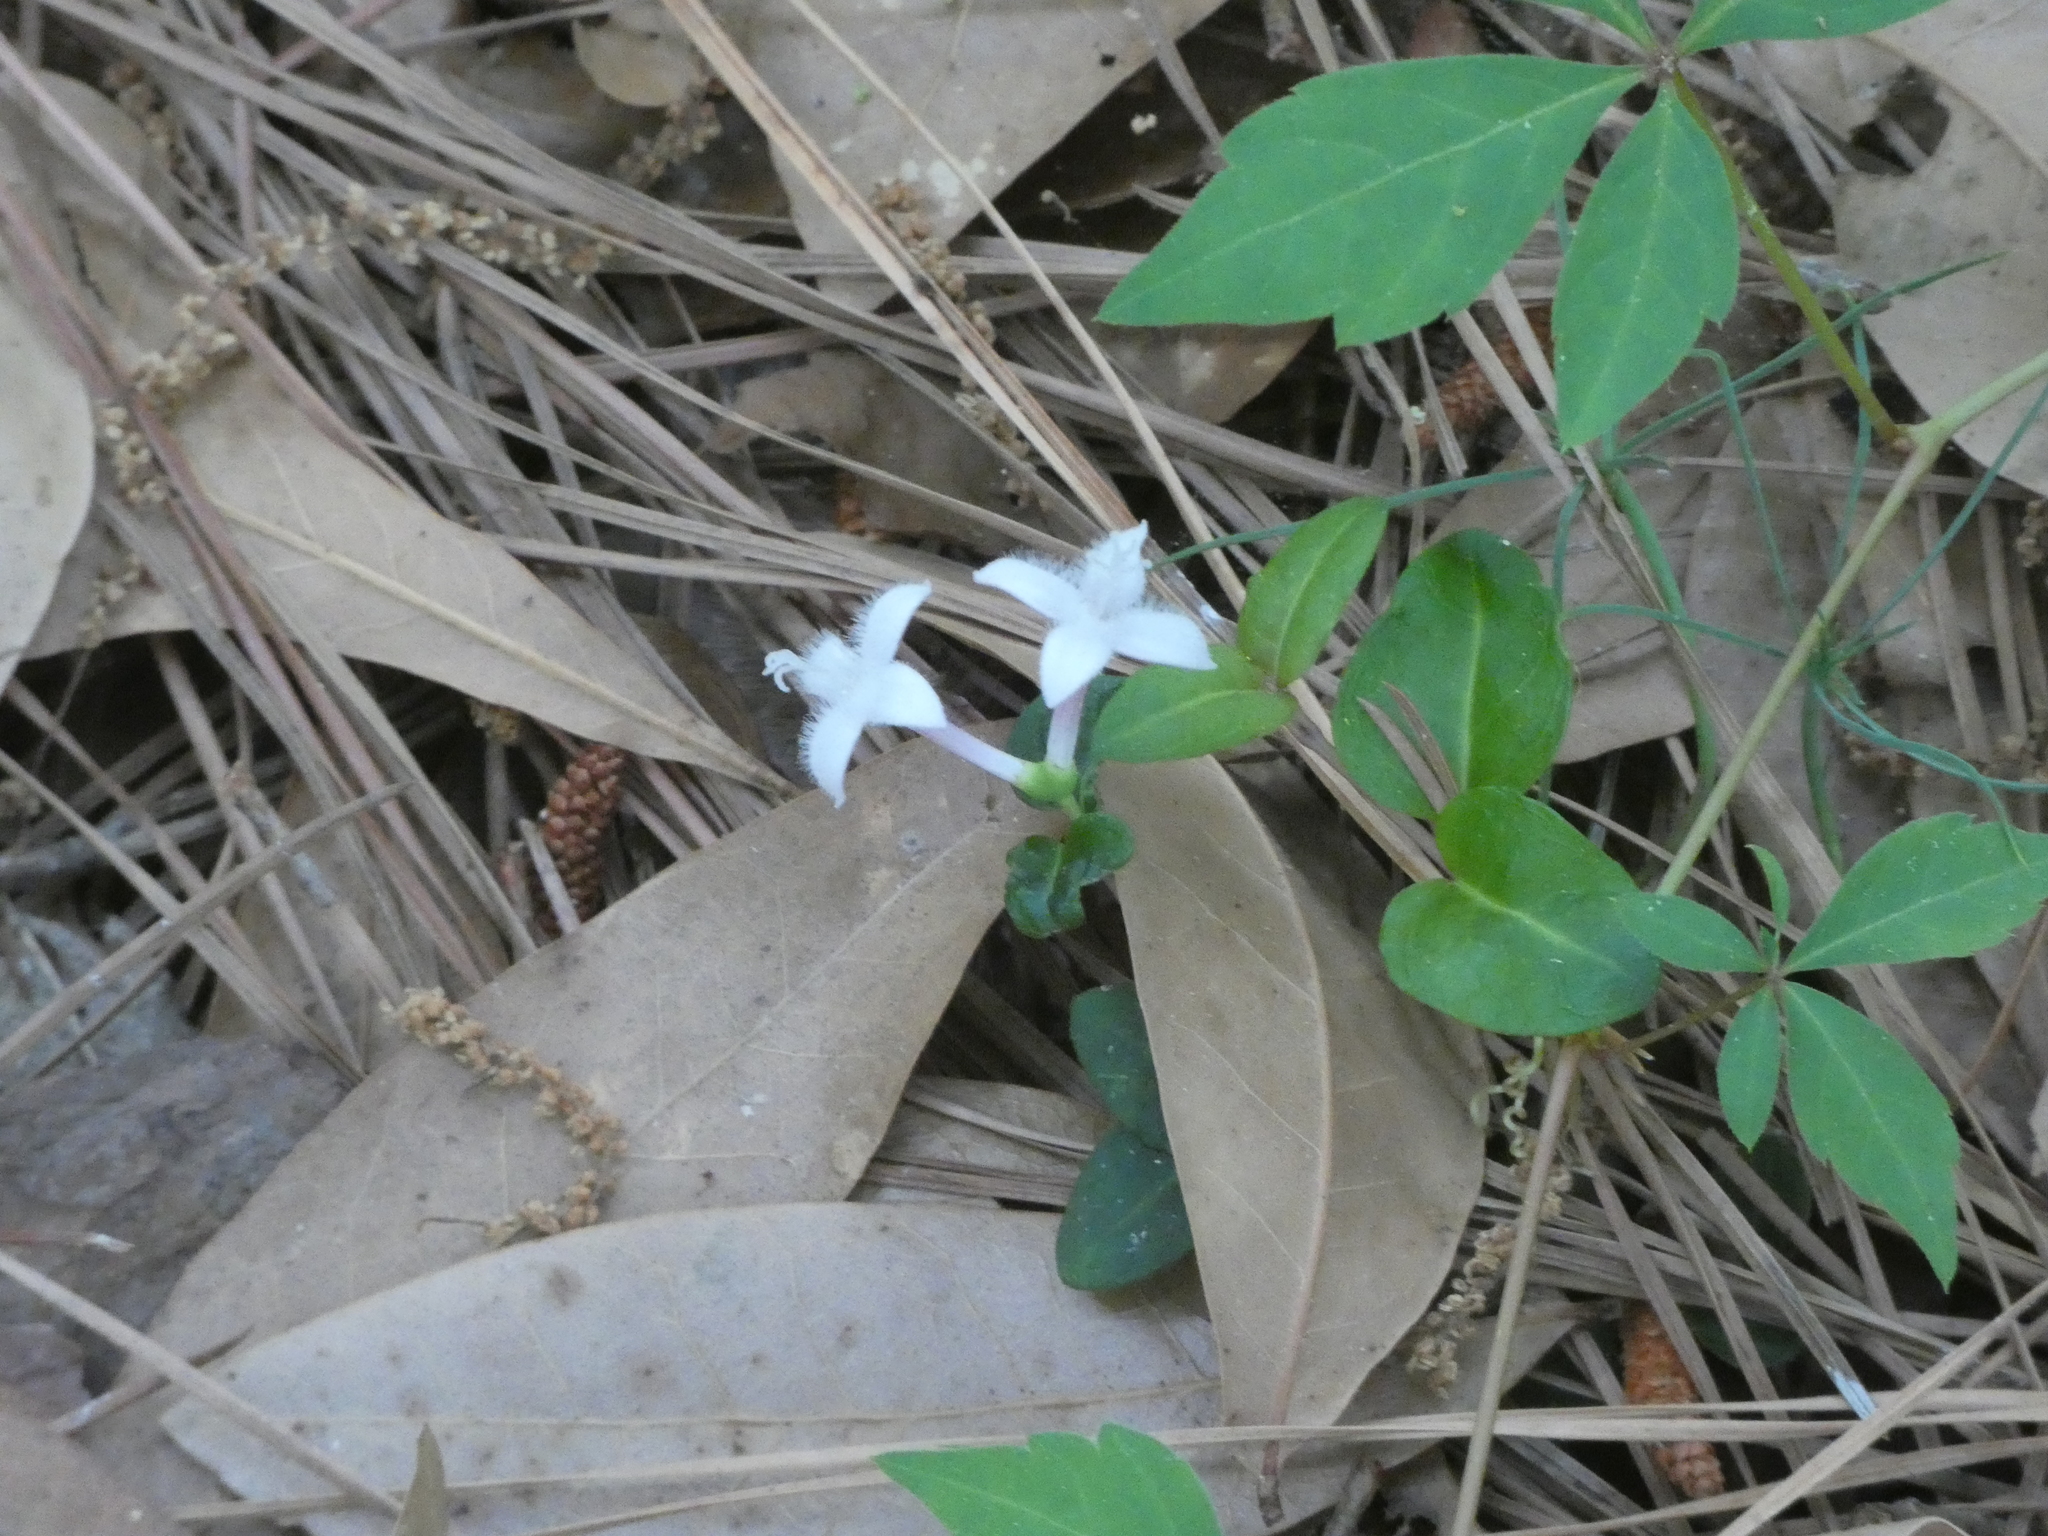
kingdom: Plantae
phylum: Tracheophyta
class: Magnoliopsida
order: Gentianales
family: Rubiaceae
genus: Mitchella
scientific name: Mitchella repens
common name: Partridge-berry
